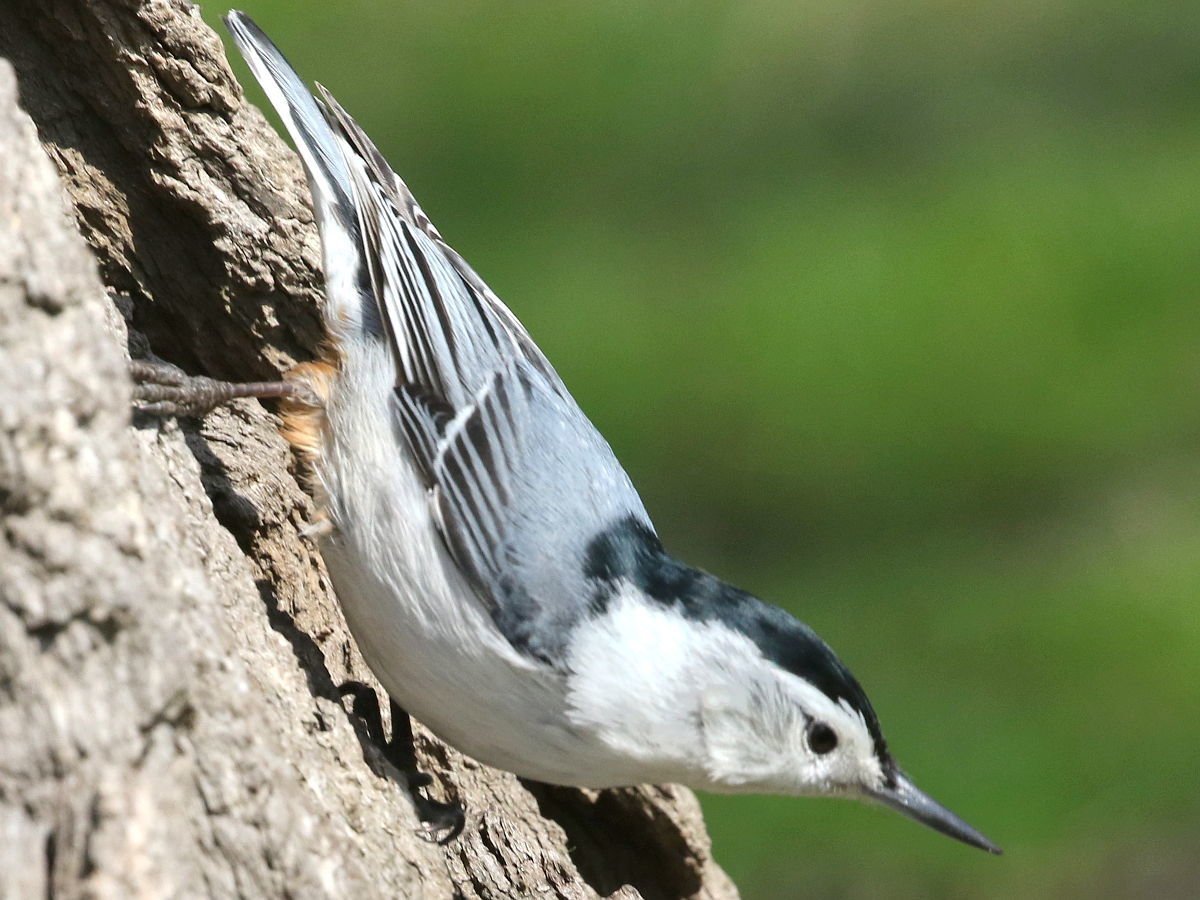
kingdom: Animalia
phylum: Chordata
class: Aves
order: Passeriformes
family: Sittidae
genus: Sitta
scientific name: Sitta carolinensis
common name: White-breasted nuthatch
